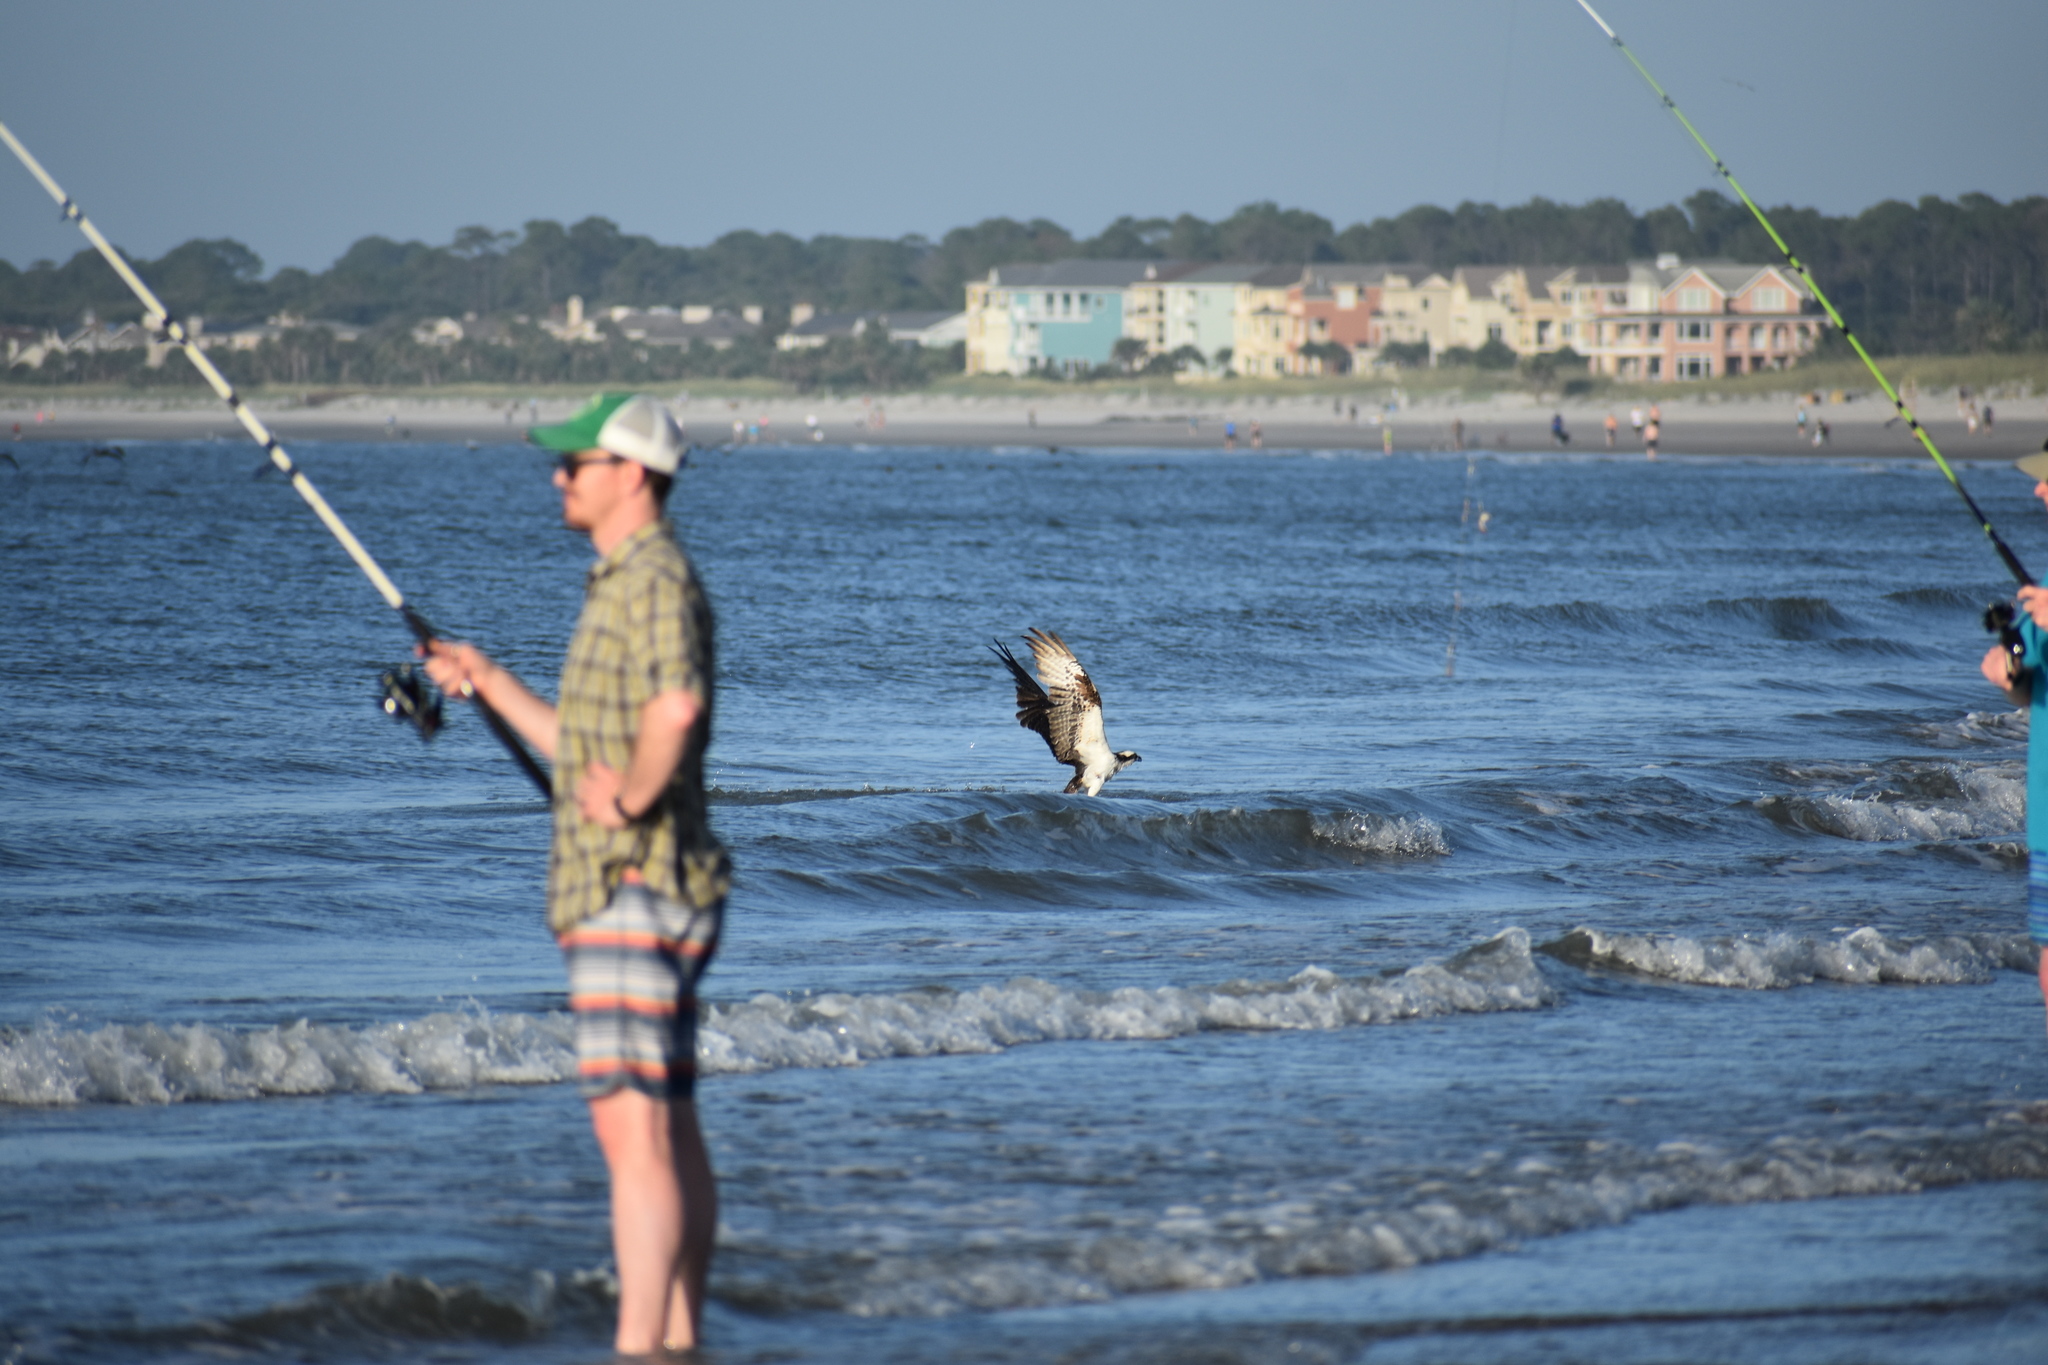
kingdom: Animalia
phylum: Chordata
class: Aves
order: Accipitriformes
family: Pandionidae
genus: Pandion
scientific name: Pandion haliaetus
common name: Osprey
